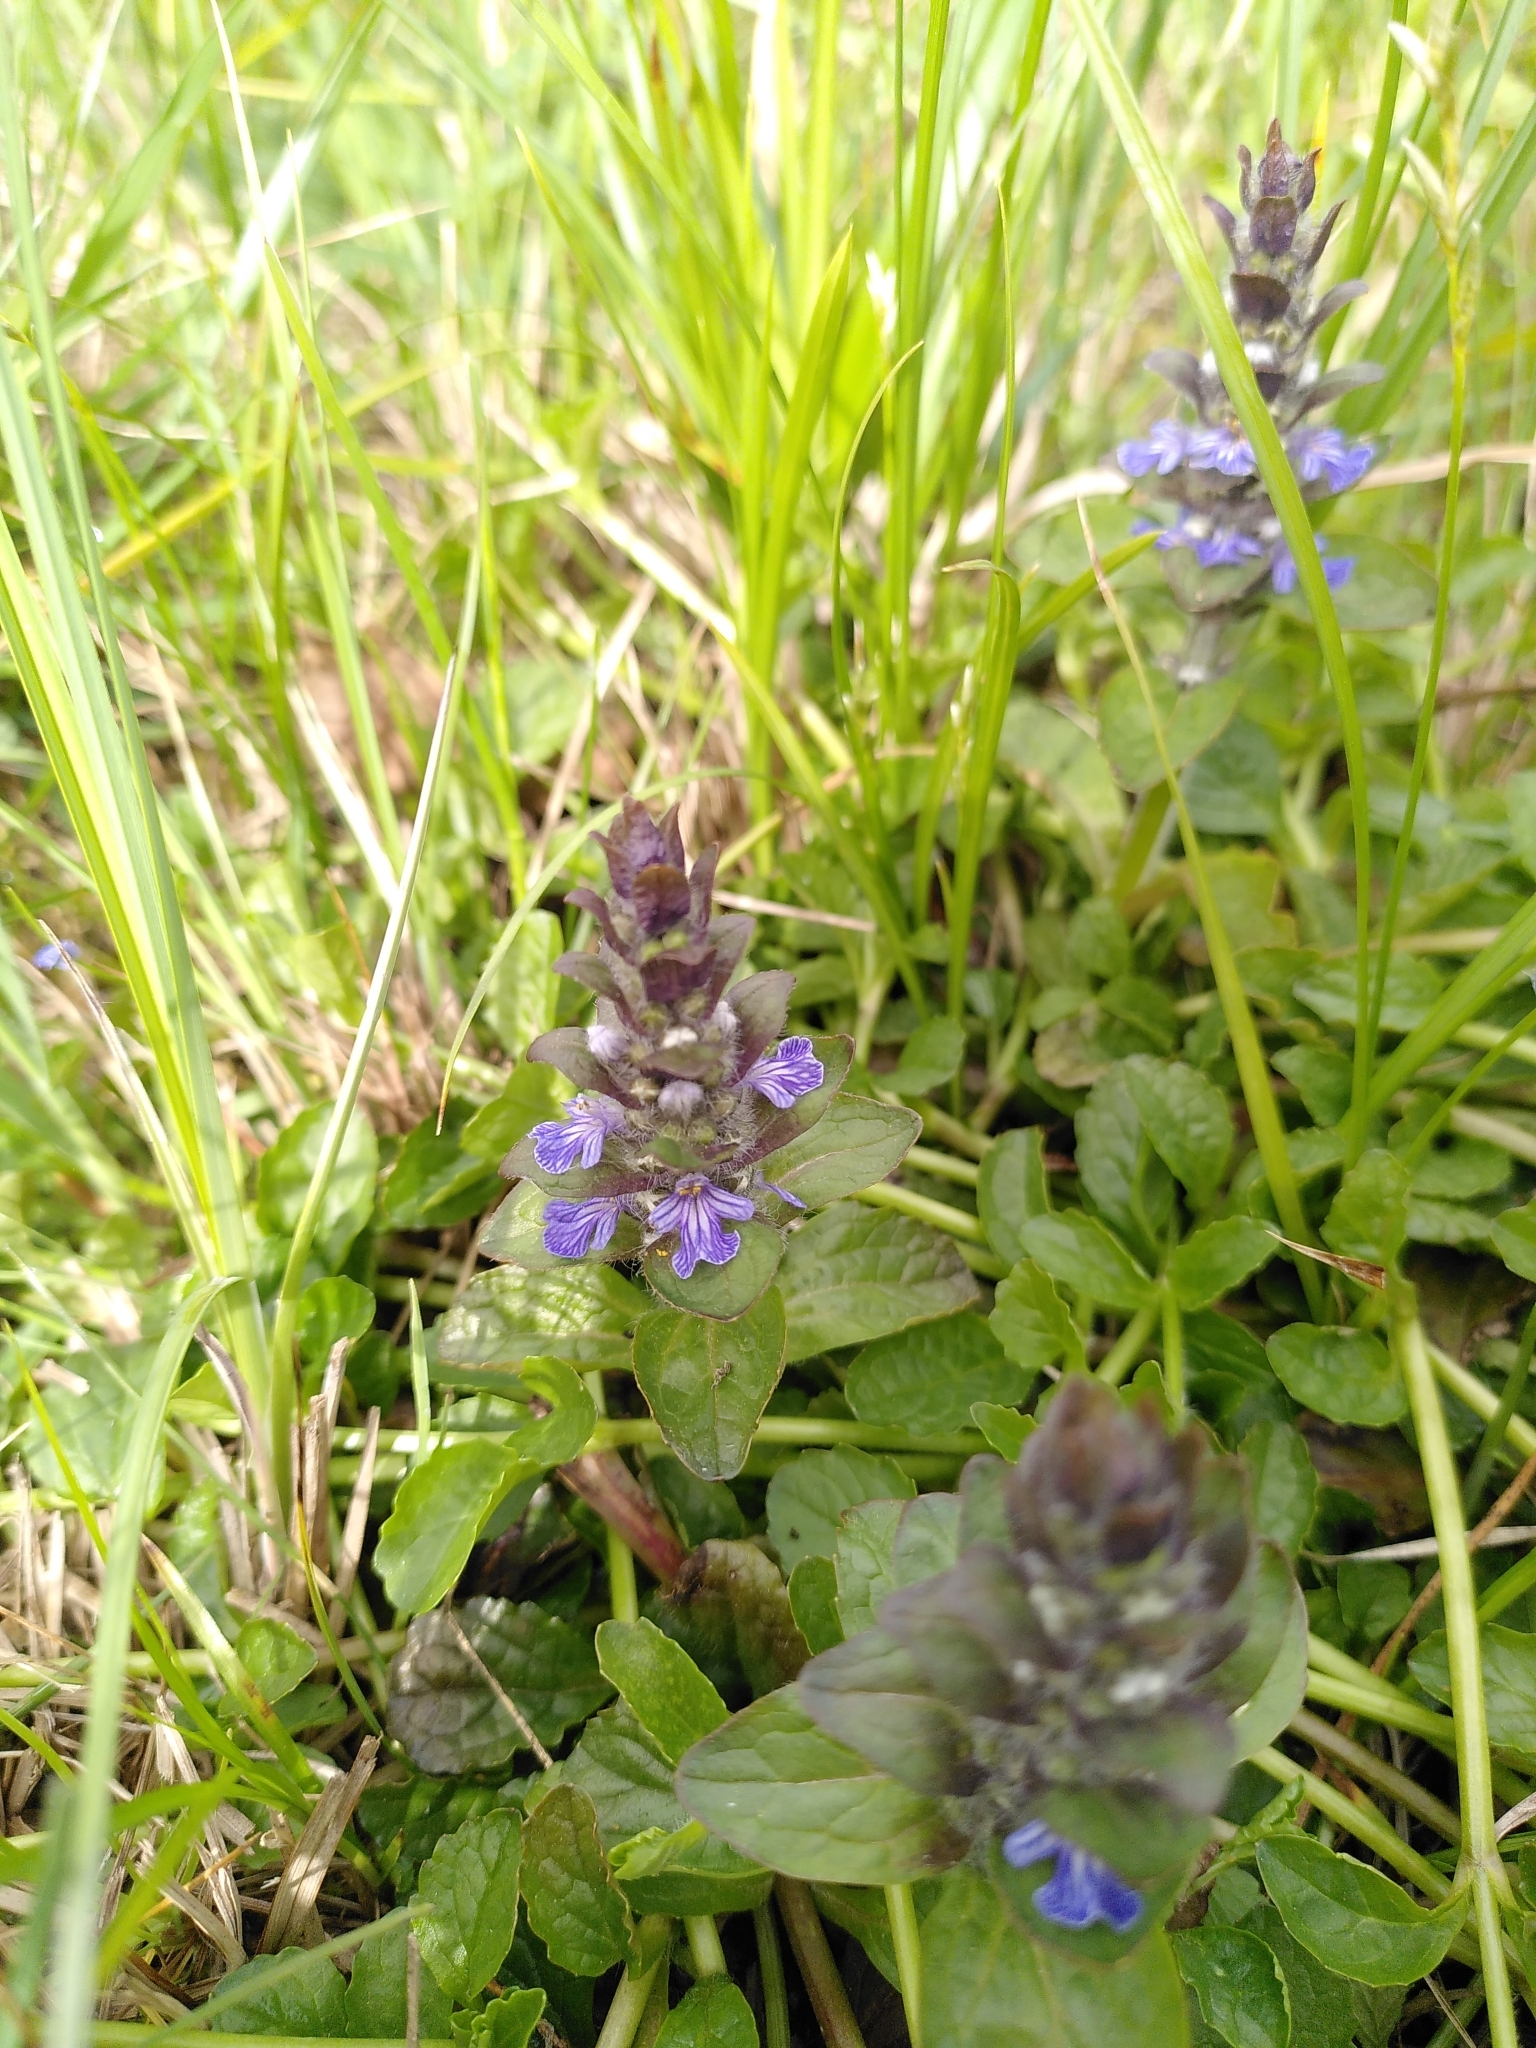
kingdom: Plantae
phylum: Tracheophyta
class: Magnoliopsida
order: Lamiales
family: Lamiaceae
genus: Ajuga
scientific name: Ajuga reptans
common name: Bugle
